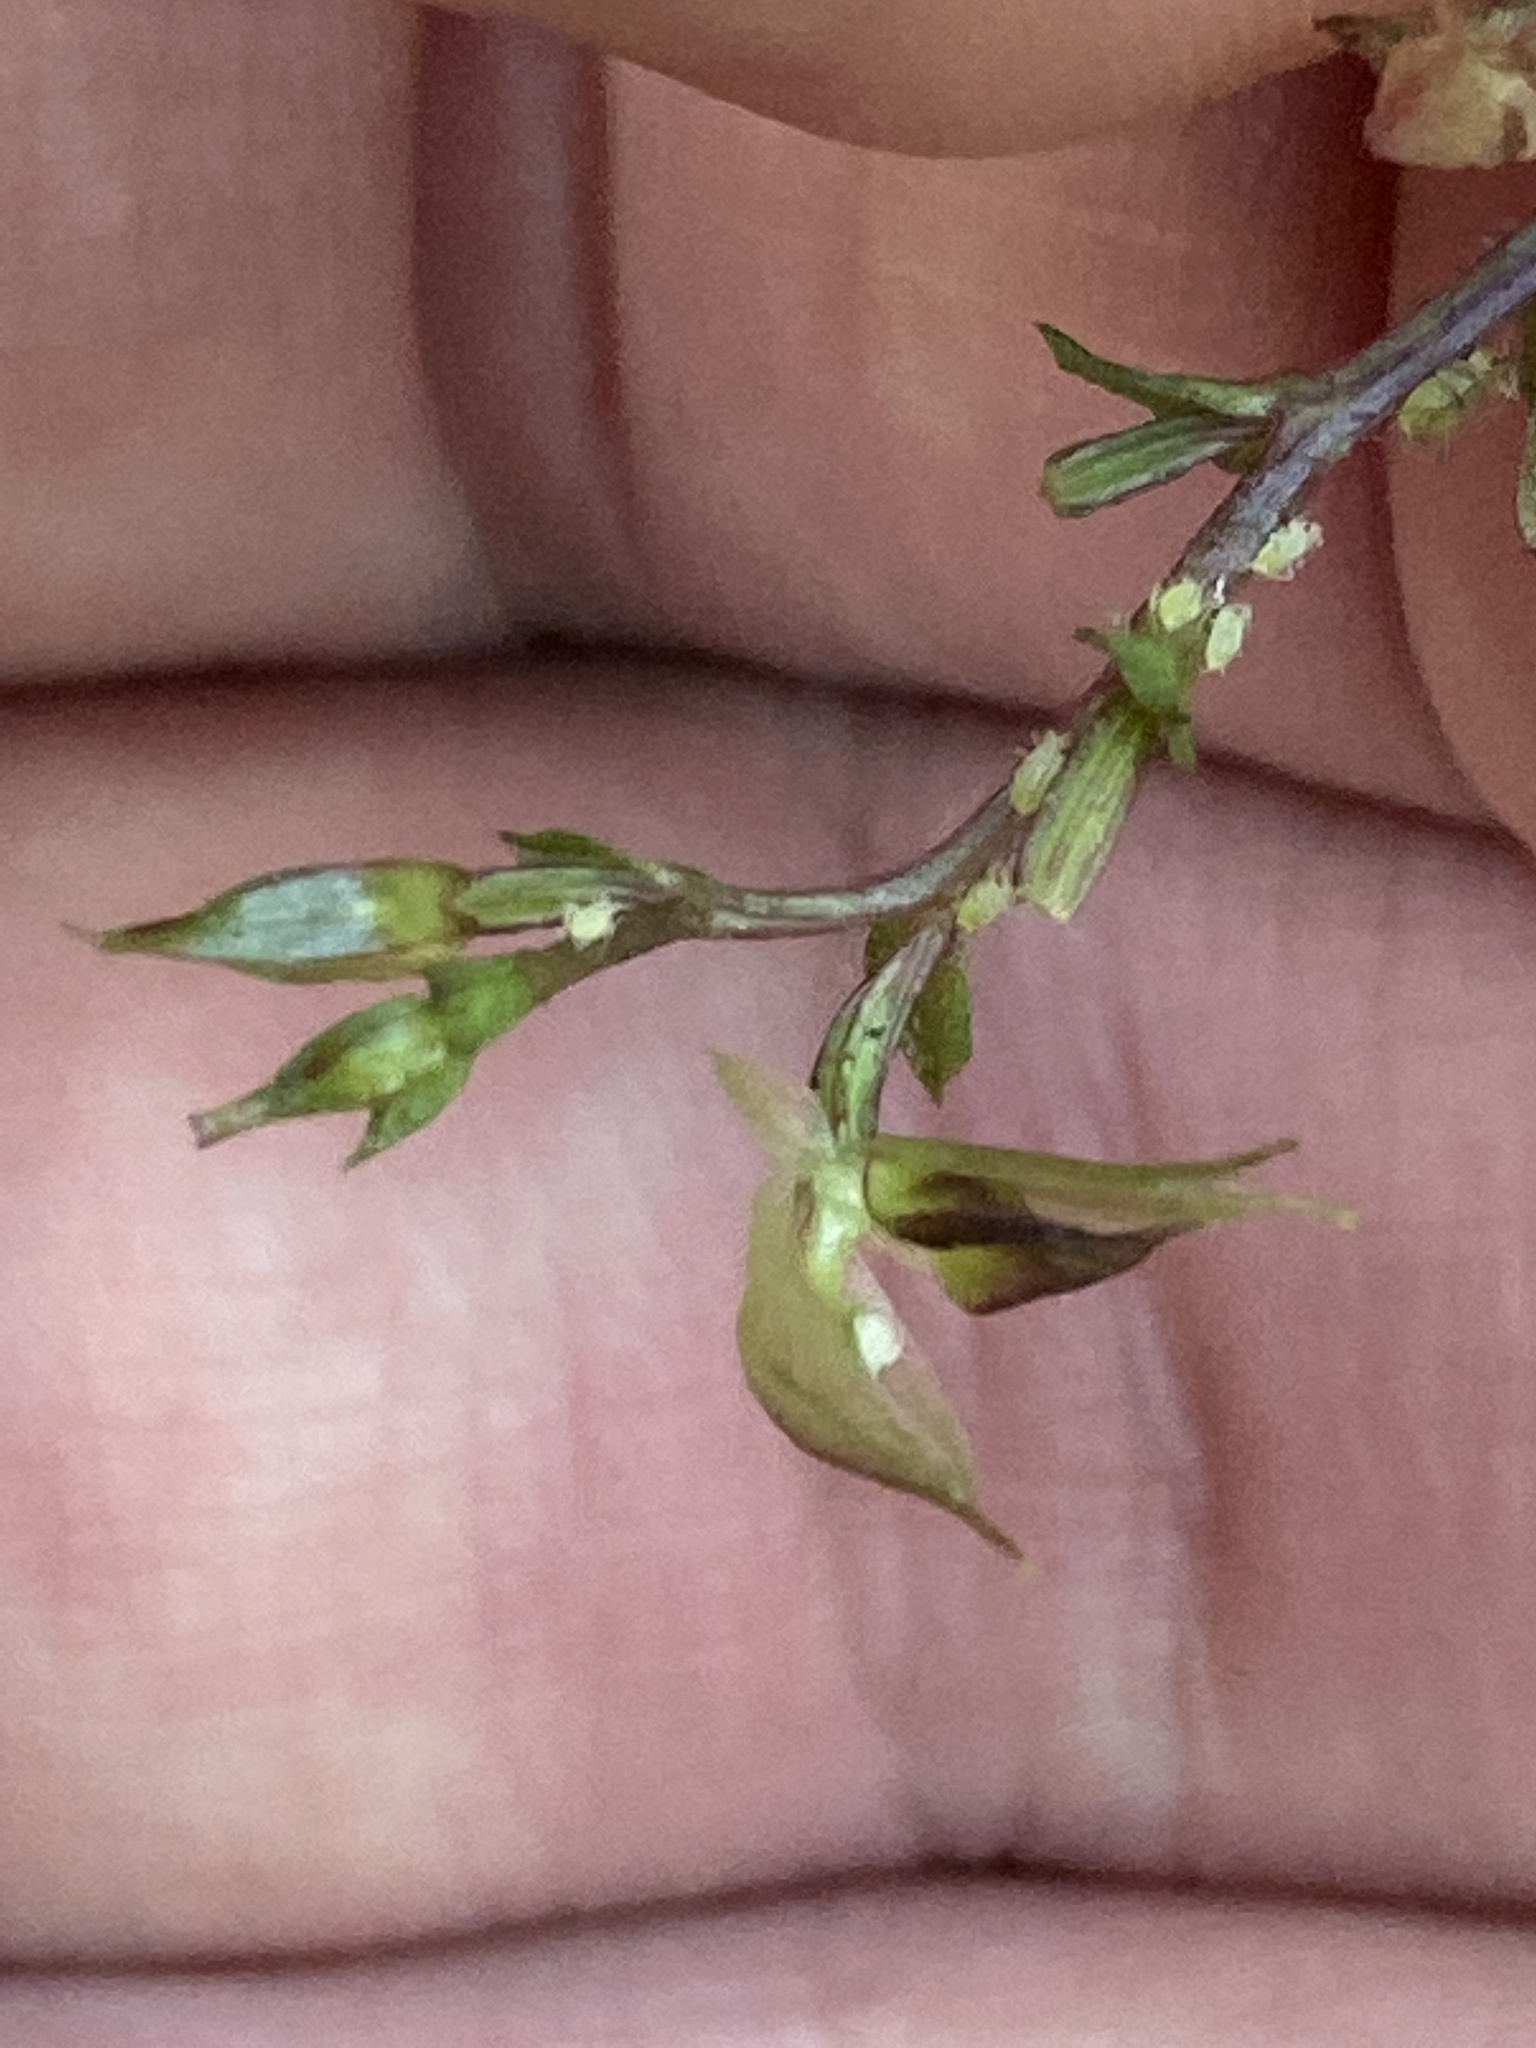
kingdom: Plantae
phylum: Tracheophyta
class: Liliopsida
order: Asparagales
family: Orchidaceae
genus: Acianthus
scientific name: Acianthus sinclairii
